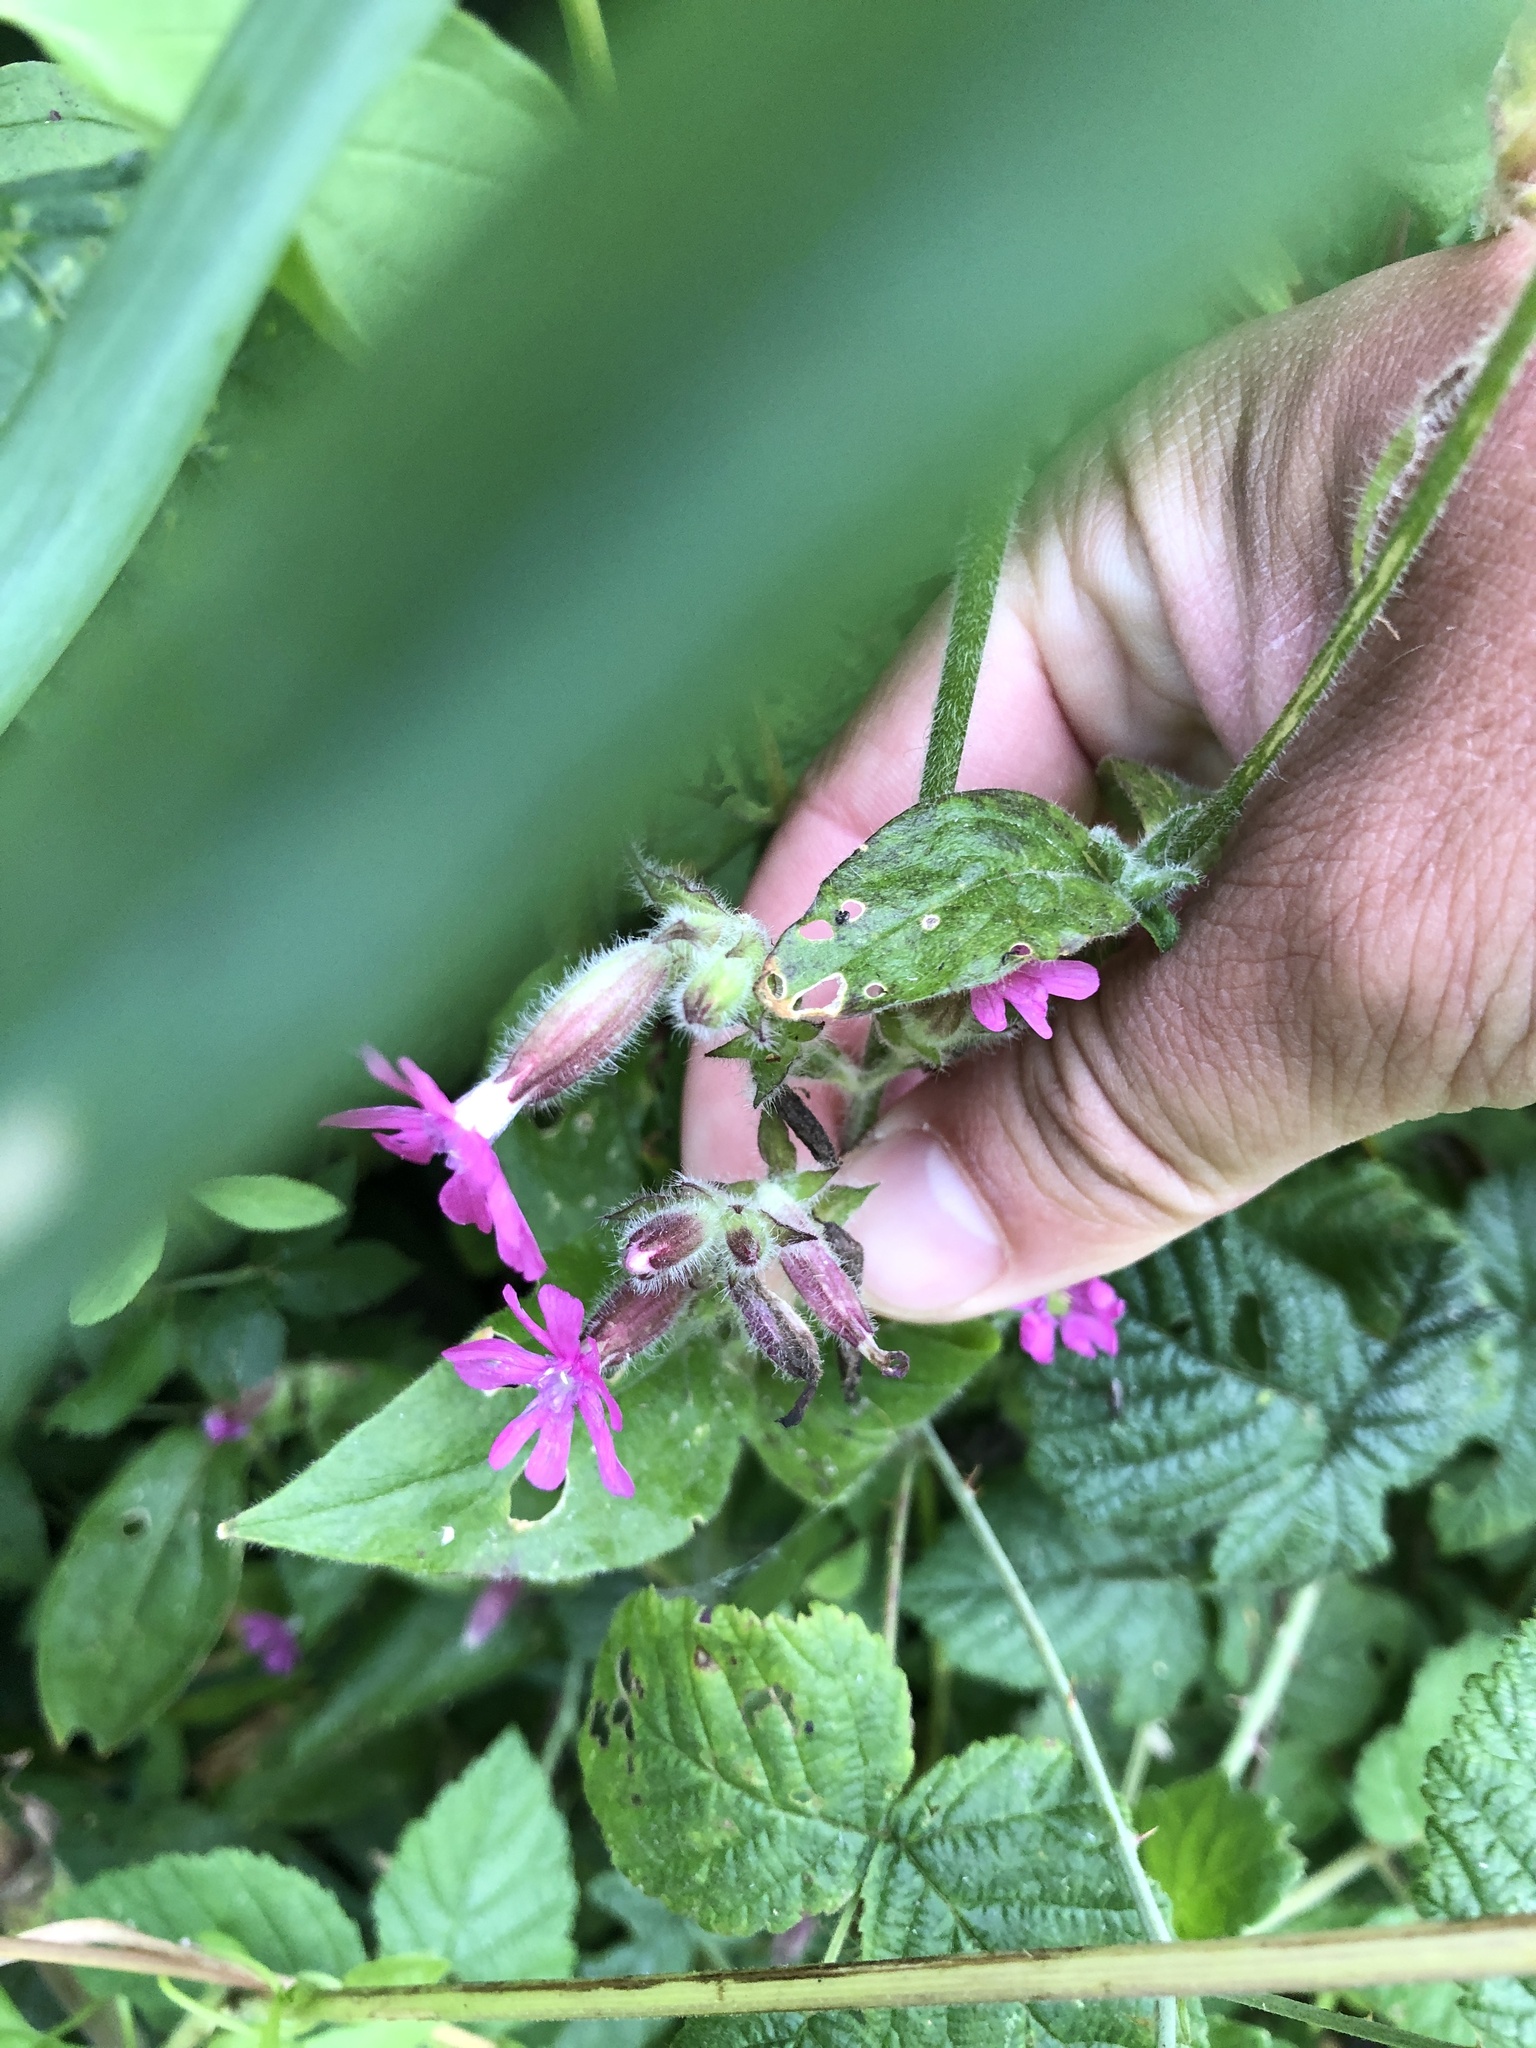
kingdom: Plantae
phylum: Tracheophyta
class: Magnoliopsida
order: Caryophyllales
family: Caryophyllaceae
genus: Silene
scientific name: Silene dioica
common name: Red campion
